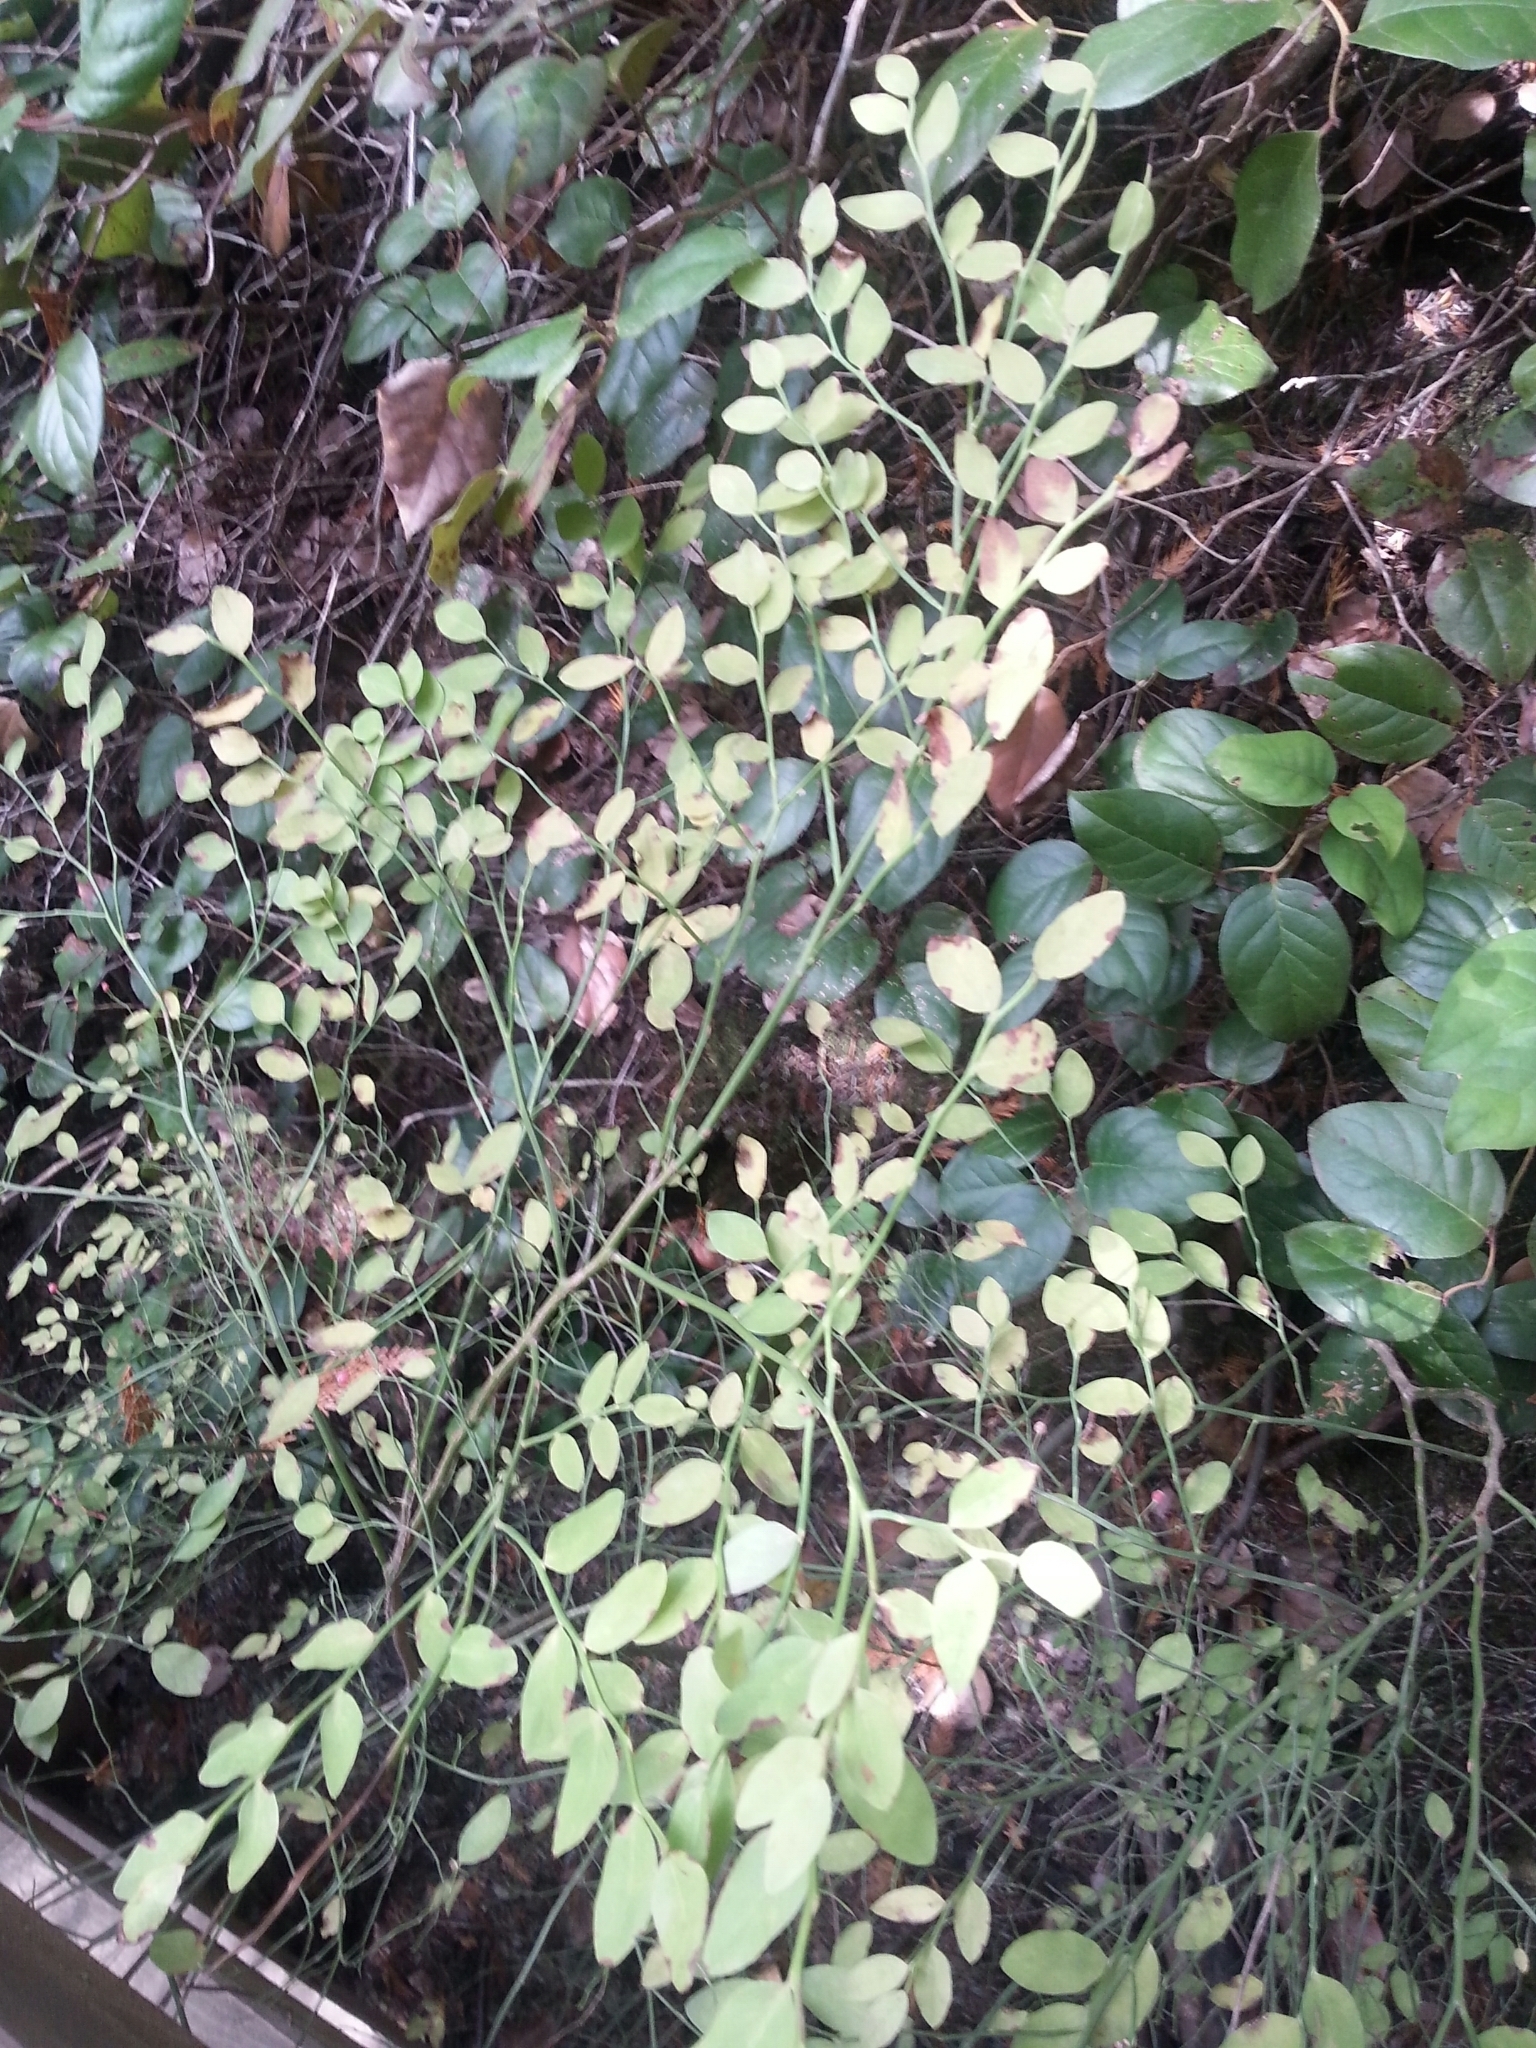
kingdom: Plantae
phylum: Tracheophyta
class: Magnoliopsida
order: Ericales
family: Ericaceae
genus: Vaccinium
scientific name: Vaccinium parvifolium
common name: Red-huckleberry
